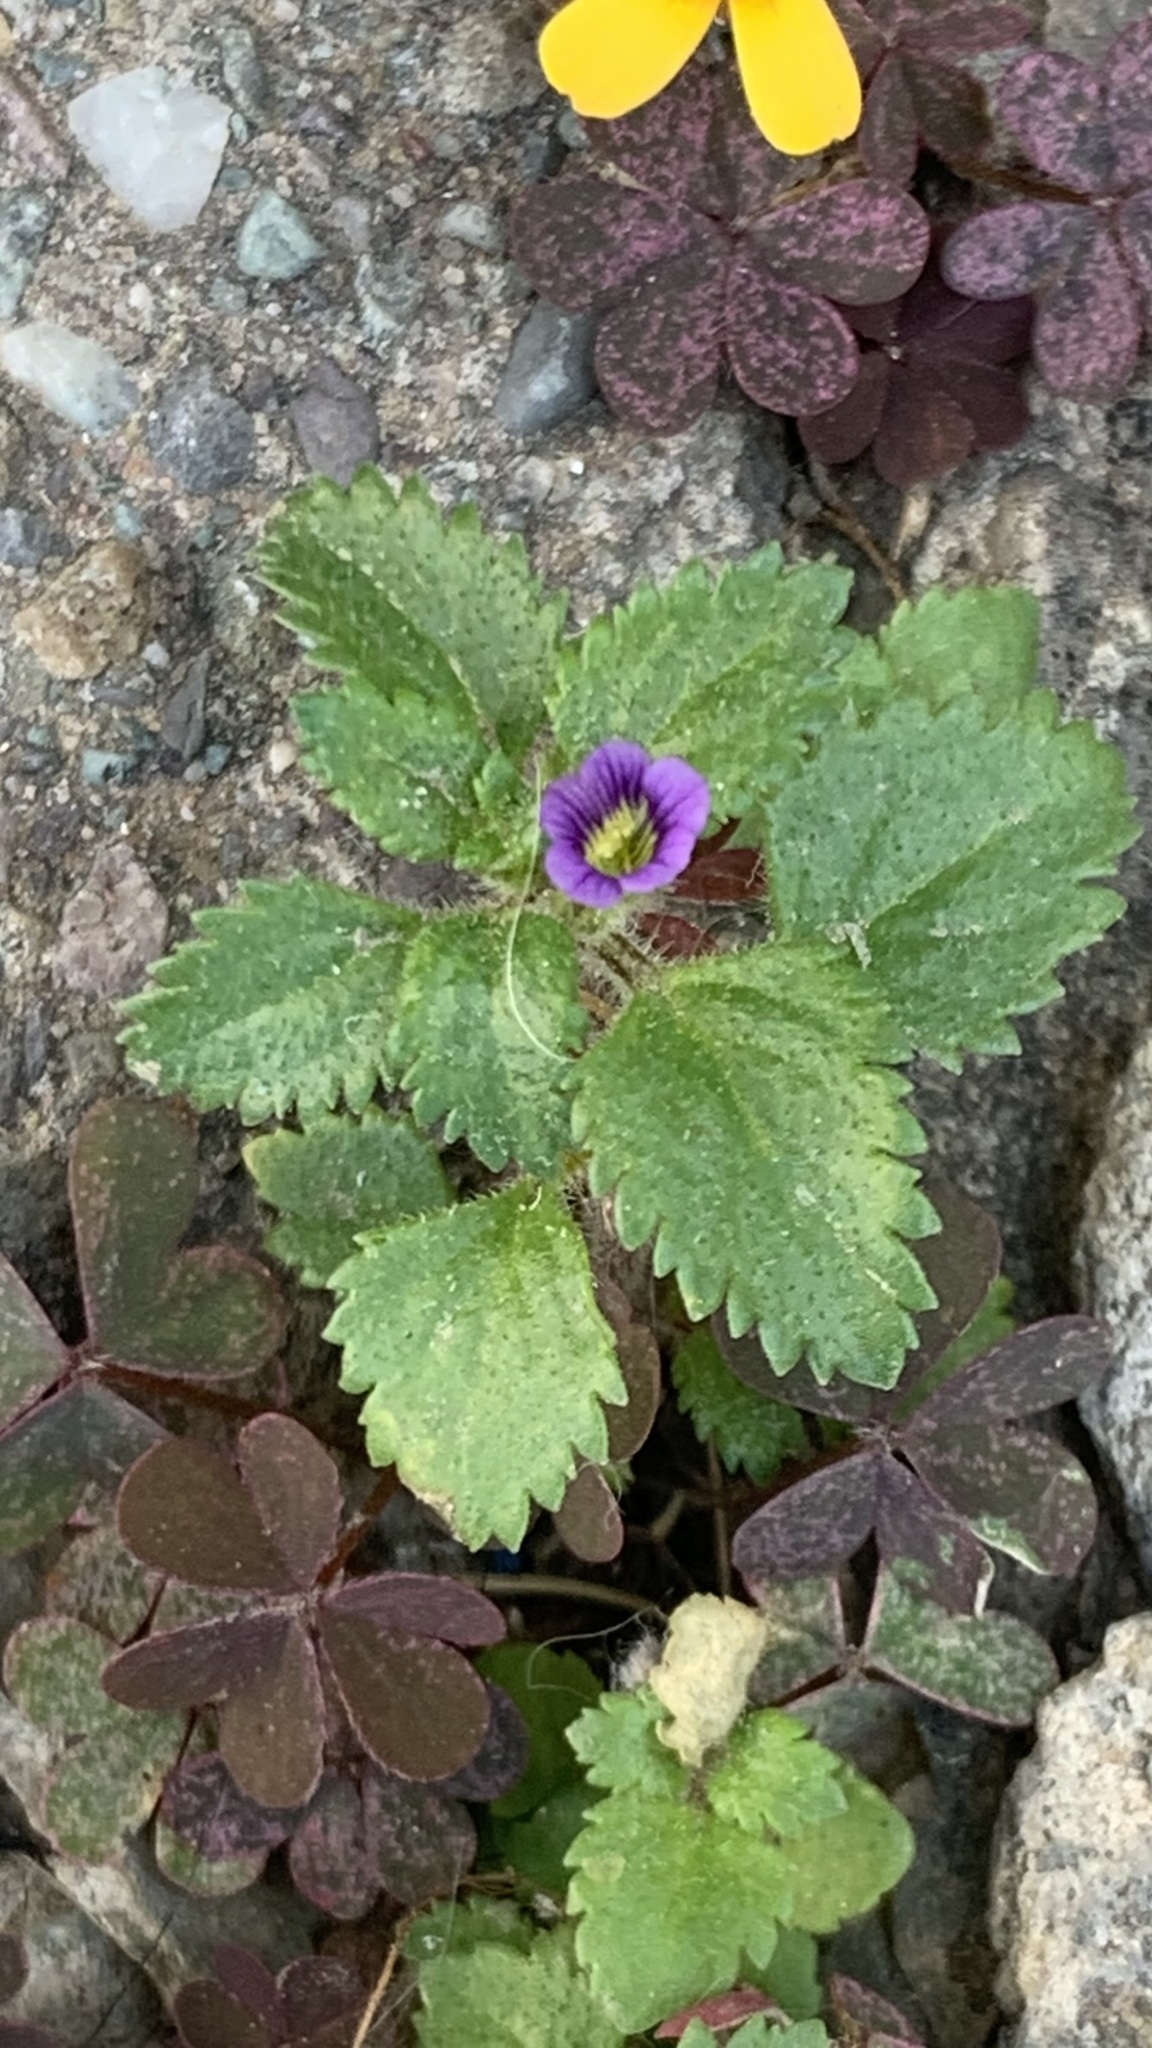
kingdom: Plantae
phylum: Tracheophyta
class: Magnoliopsida
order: Lamiales
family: Plantaginaceae
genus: Stemodia
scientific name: Stemodia verticillata
